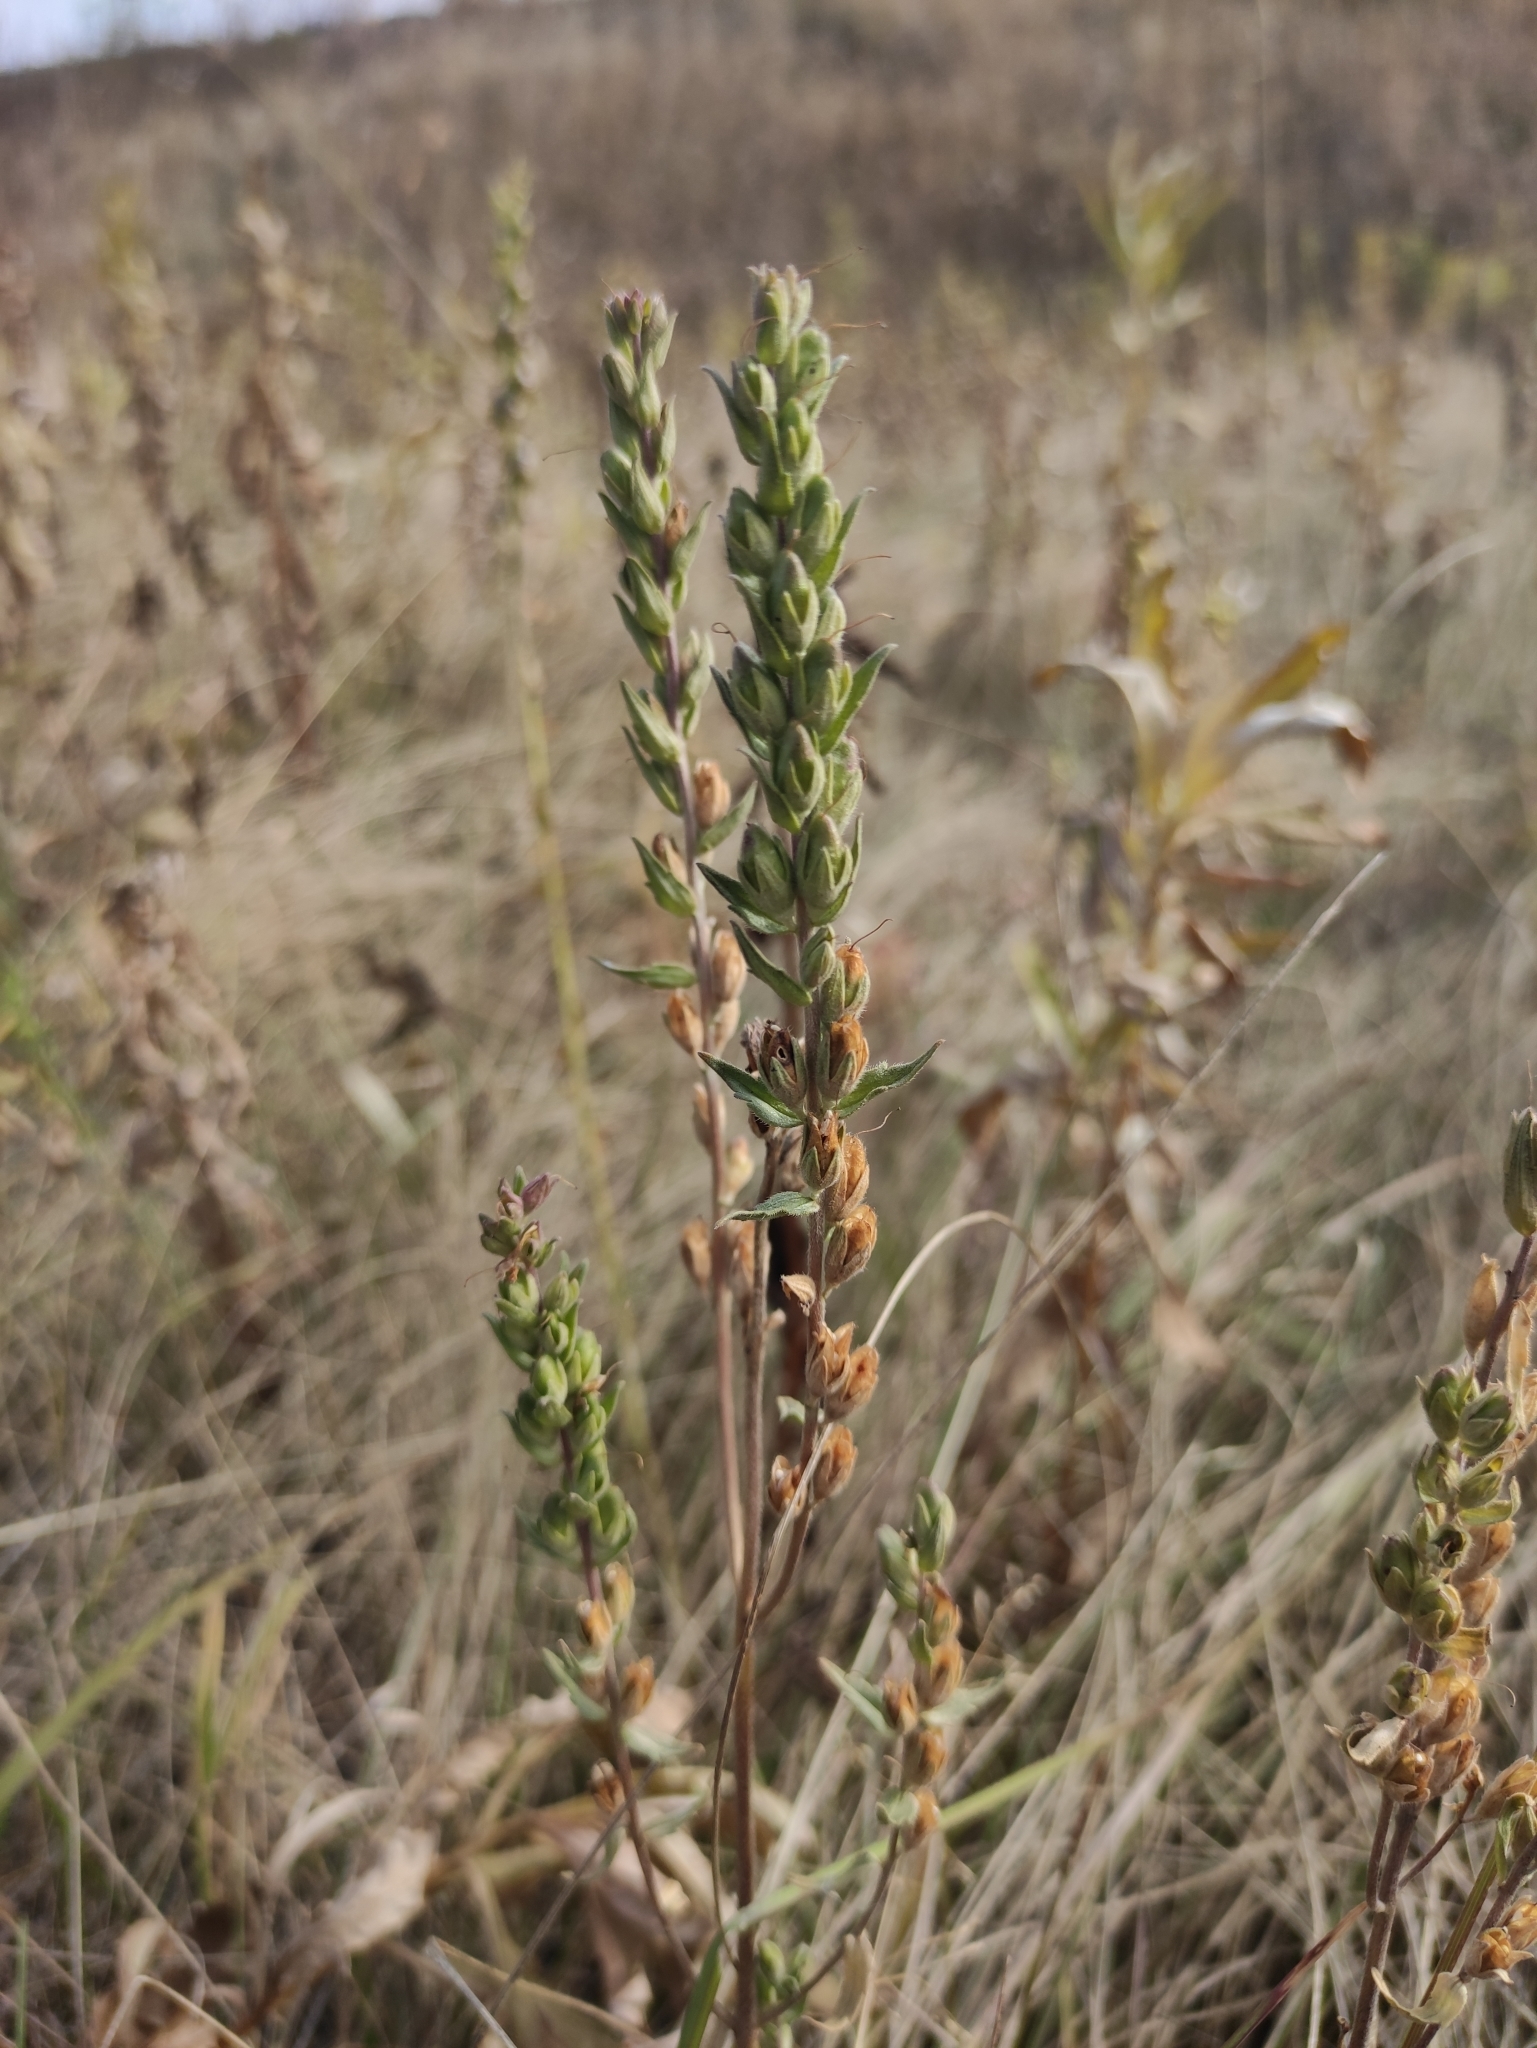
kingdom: Plantae
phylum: Tracheophyta
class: Magnoliopsida
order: Lamiales
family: Orobanchaceae
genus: Odontites
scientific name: Odontites vulgaris
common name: Broomrape
